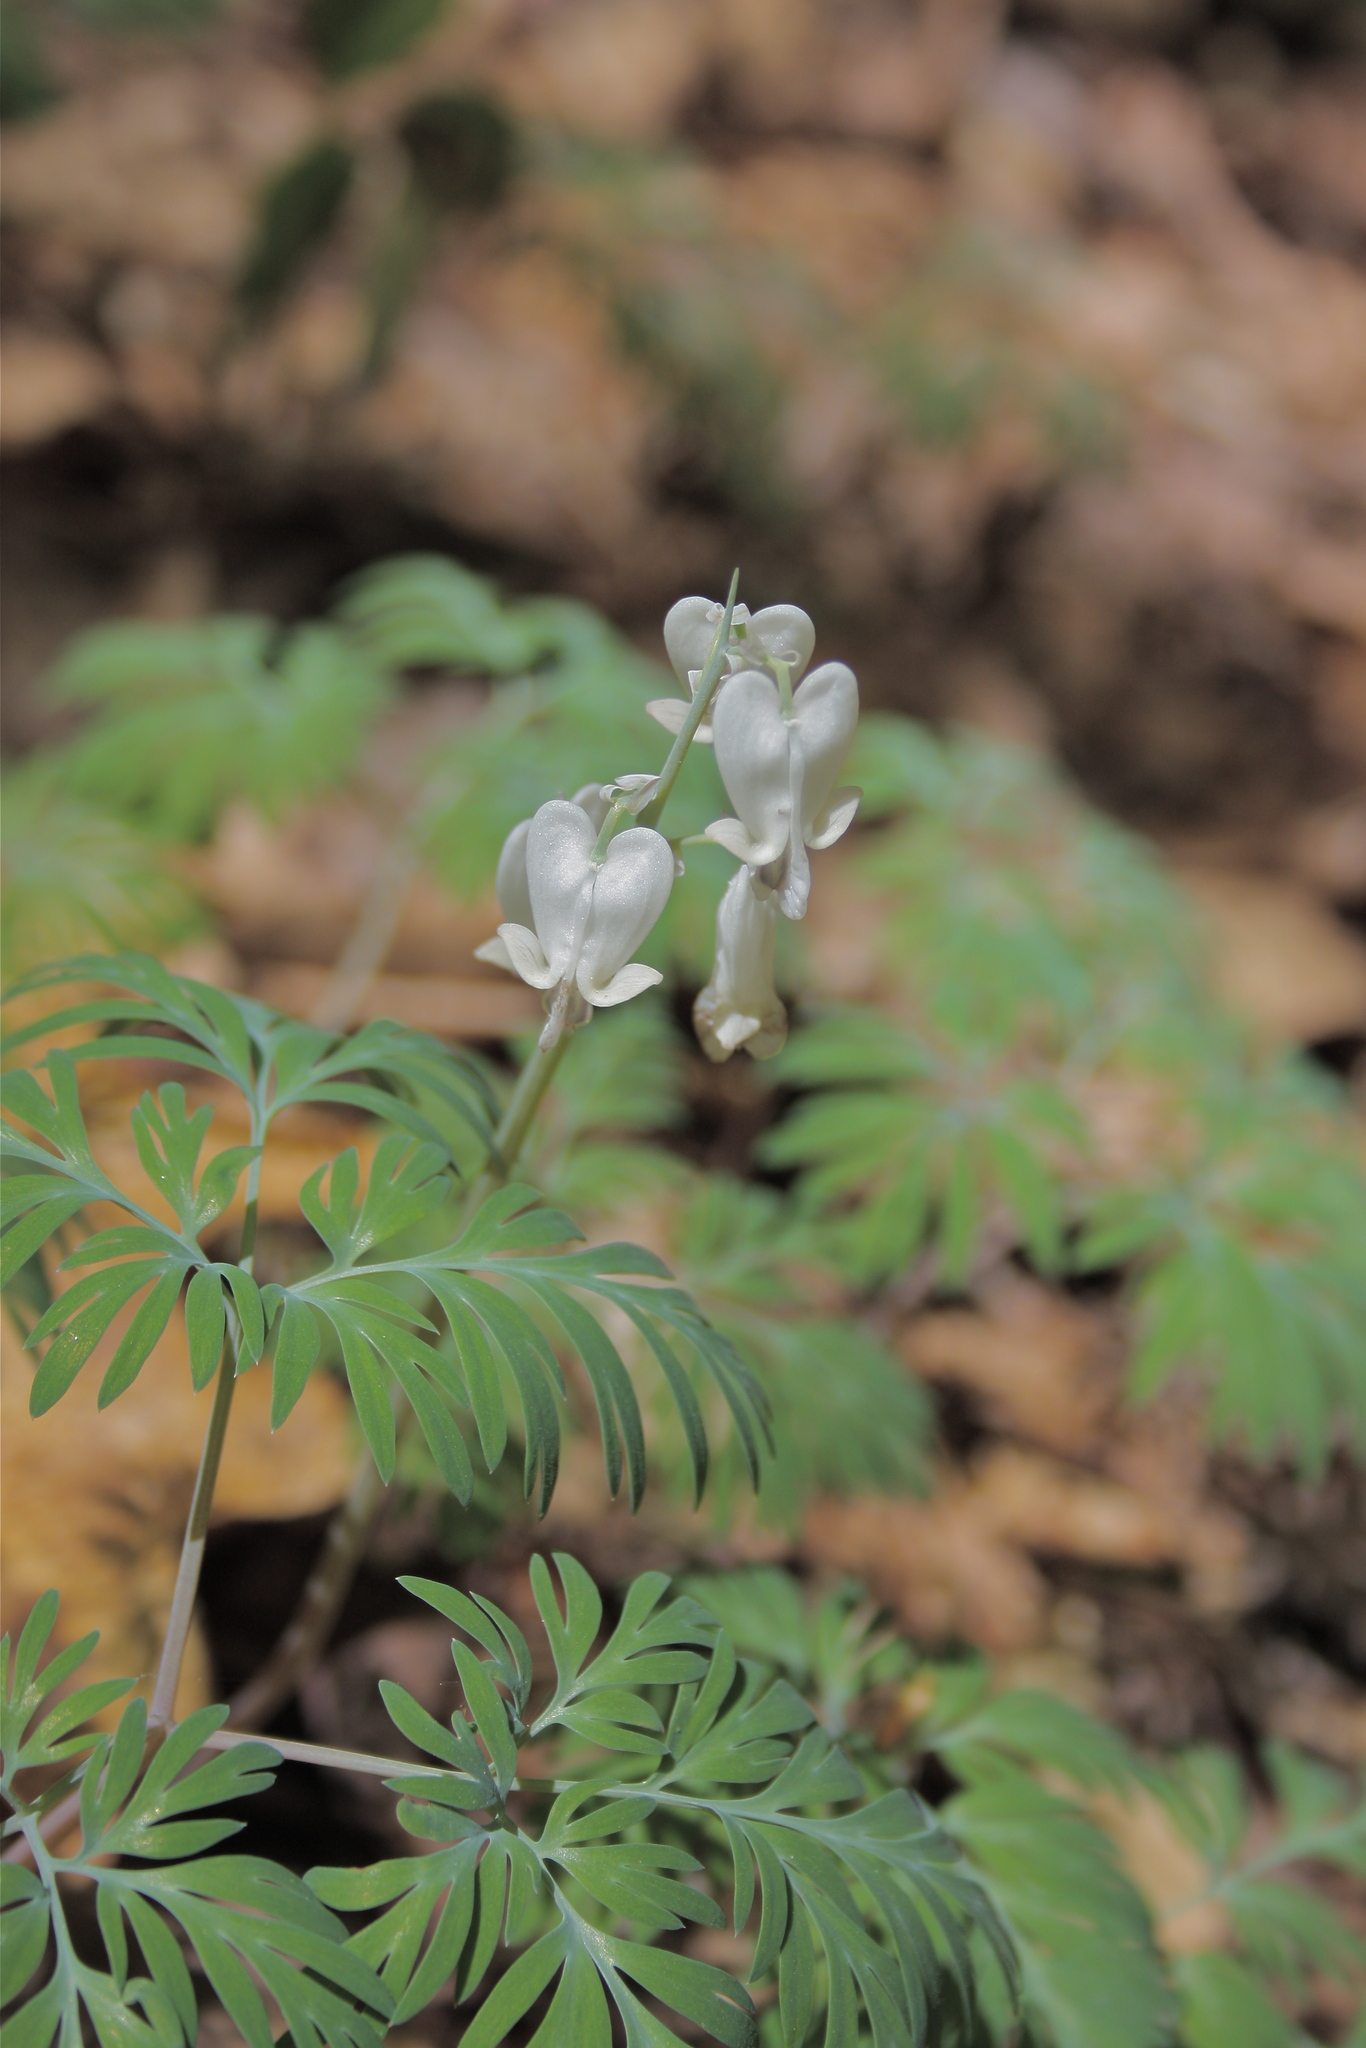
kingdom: Plantae
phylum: Tracheophyta
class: Magnoliopsida
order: Ranunculales
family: Papaveraceae
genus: Dicentra
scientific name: Dicentra canadensis
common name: Squirrel-corn
